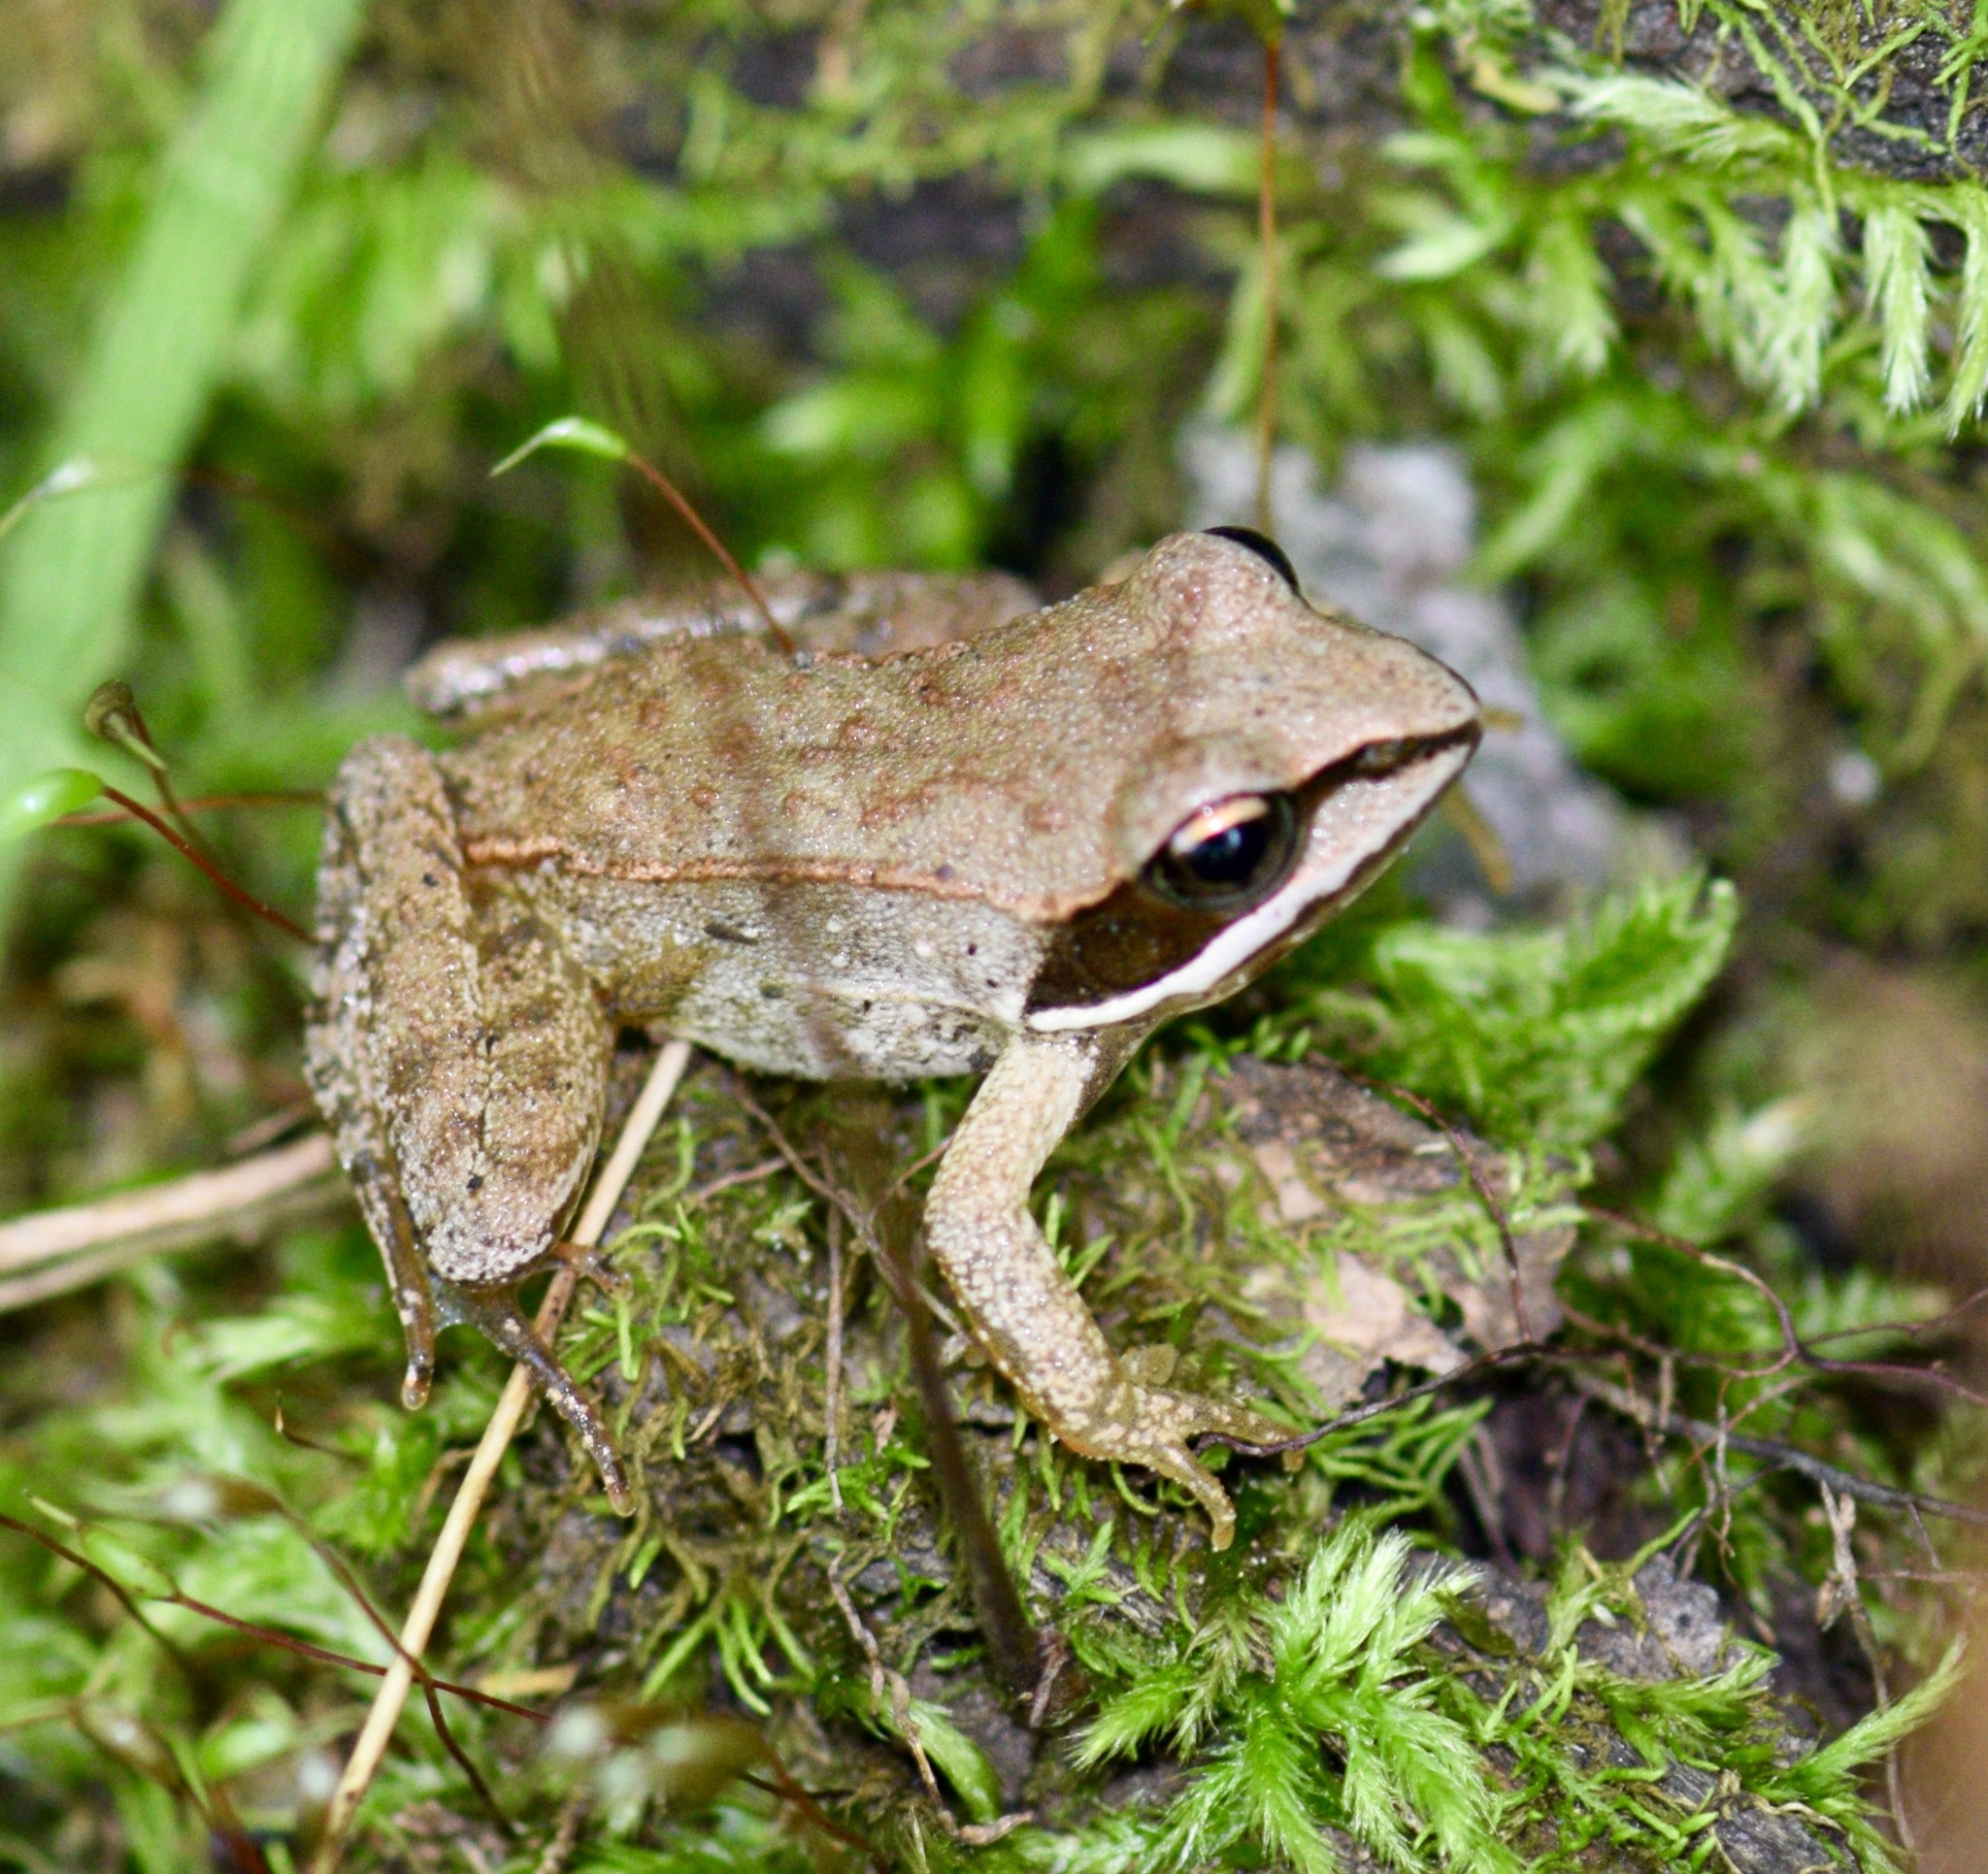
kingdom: Animalia
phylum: Chordata
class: Amphibia
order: Anura
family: Ranidae
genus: Lithobates
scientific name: Lithobates sylvaticus
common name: Wood frog
